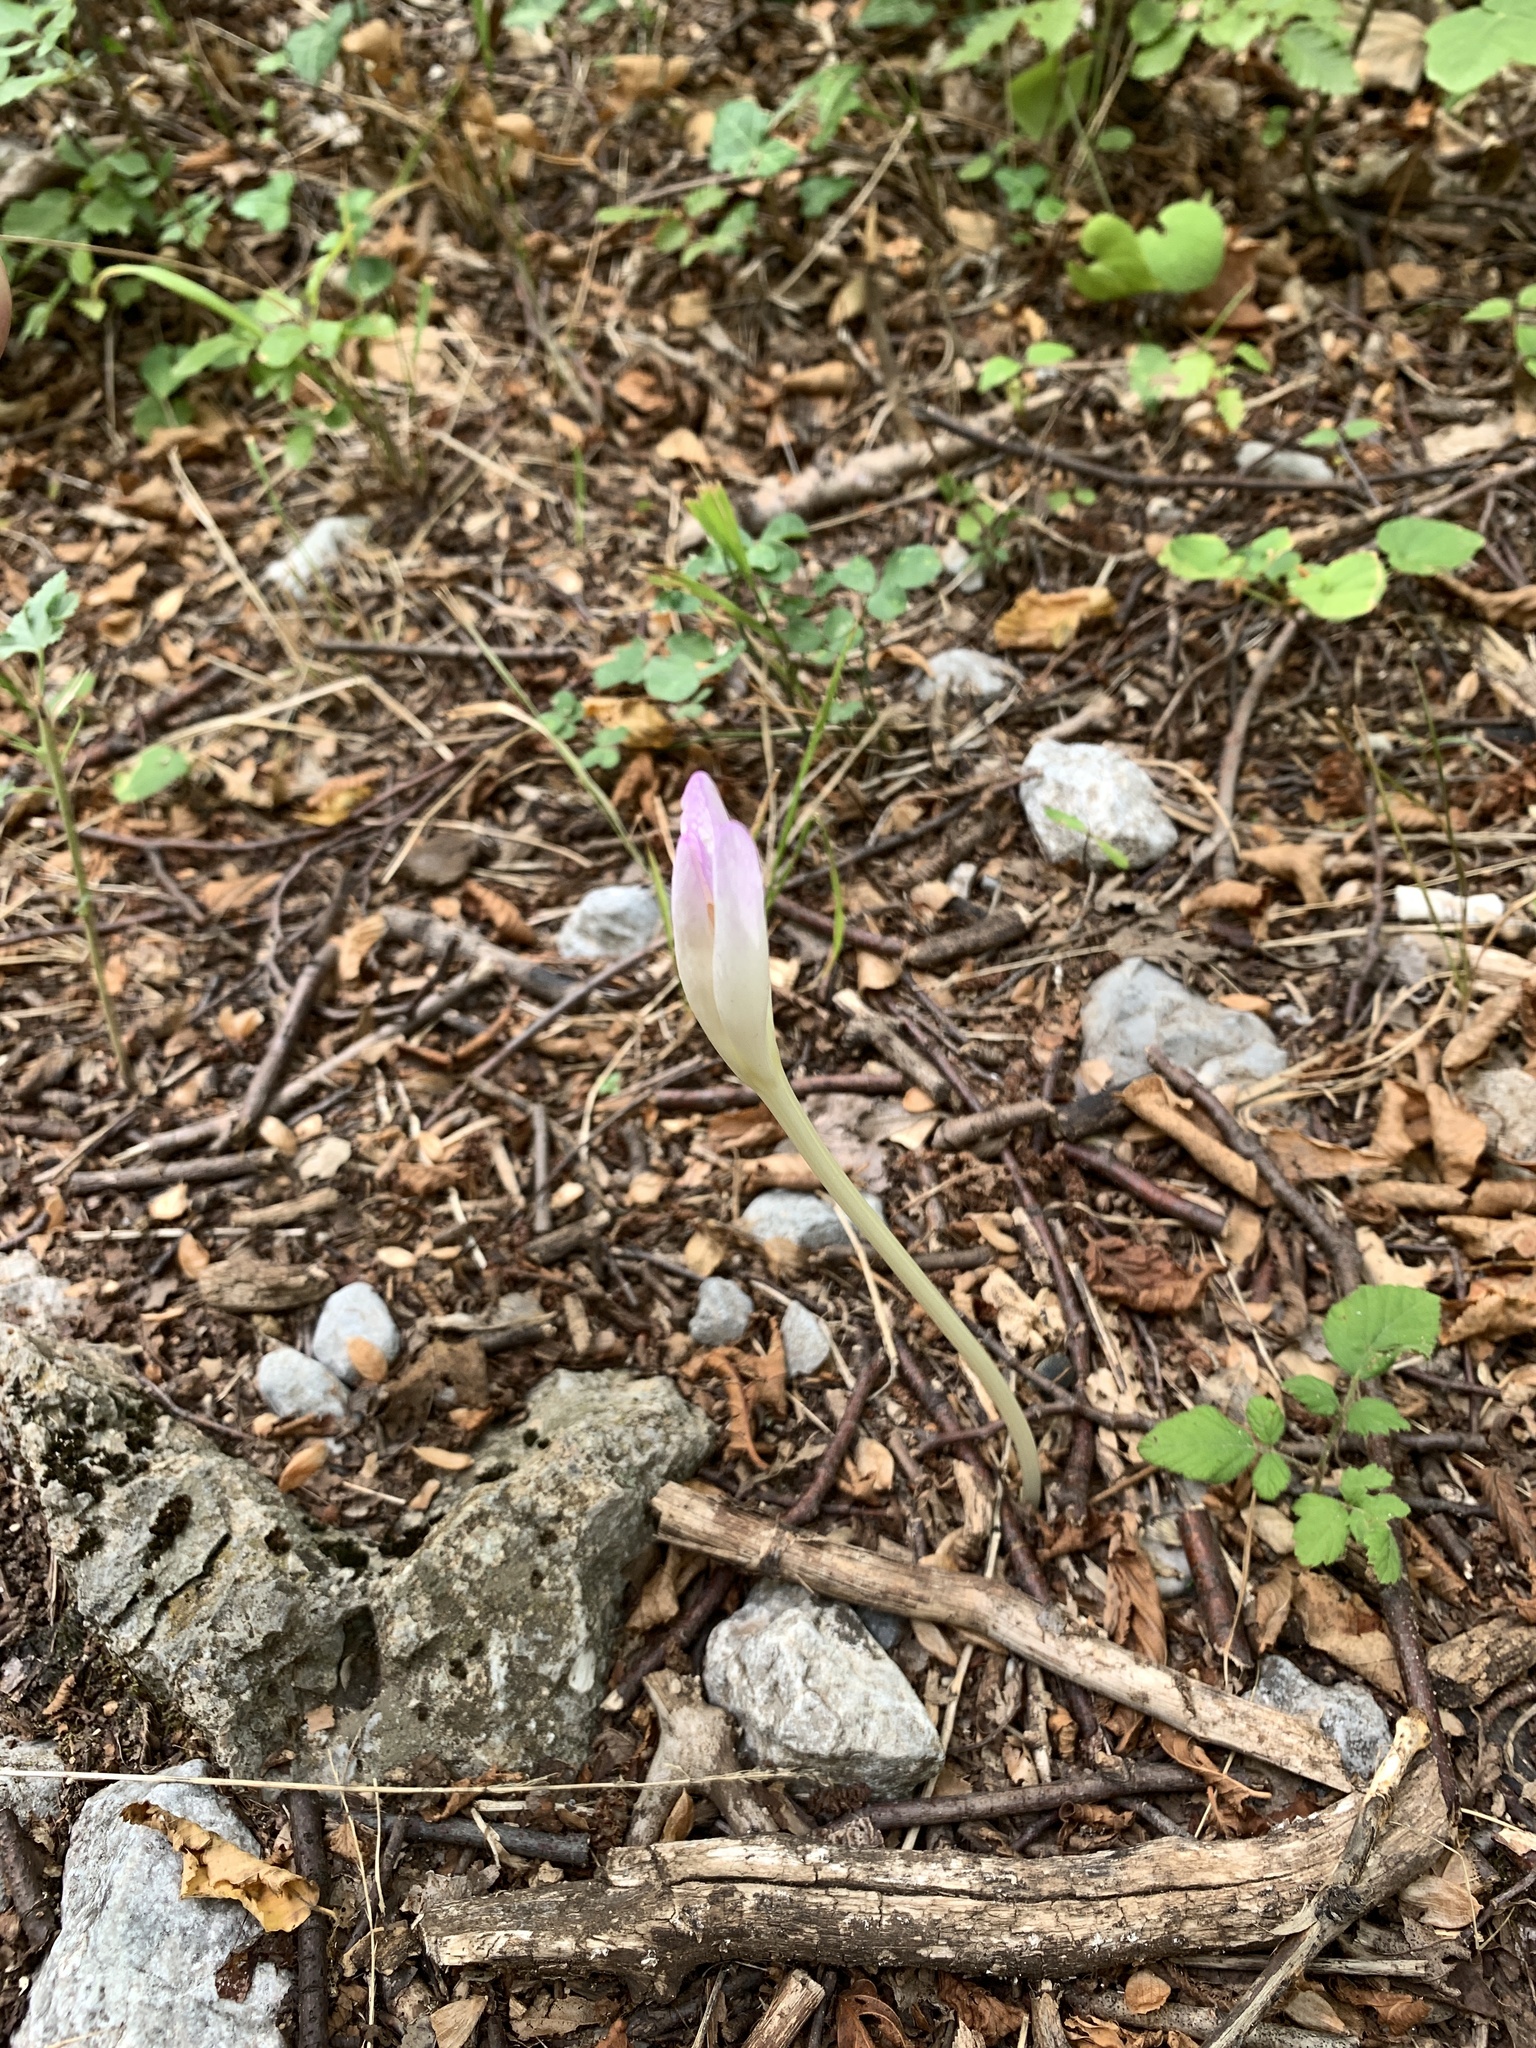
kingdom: Plantae
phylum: Tracheophyta
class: Liliopsida
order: Liliales
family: Colchicaceae
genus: Colchicum
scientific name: Colchicum haynaldii
